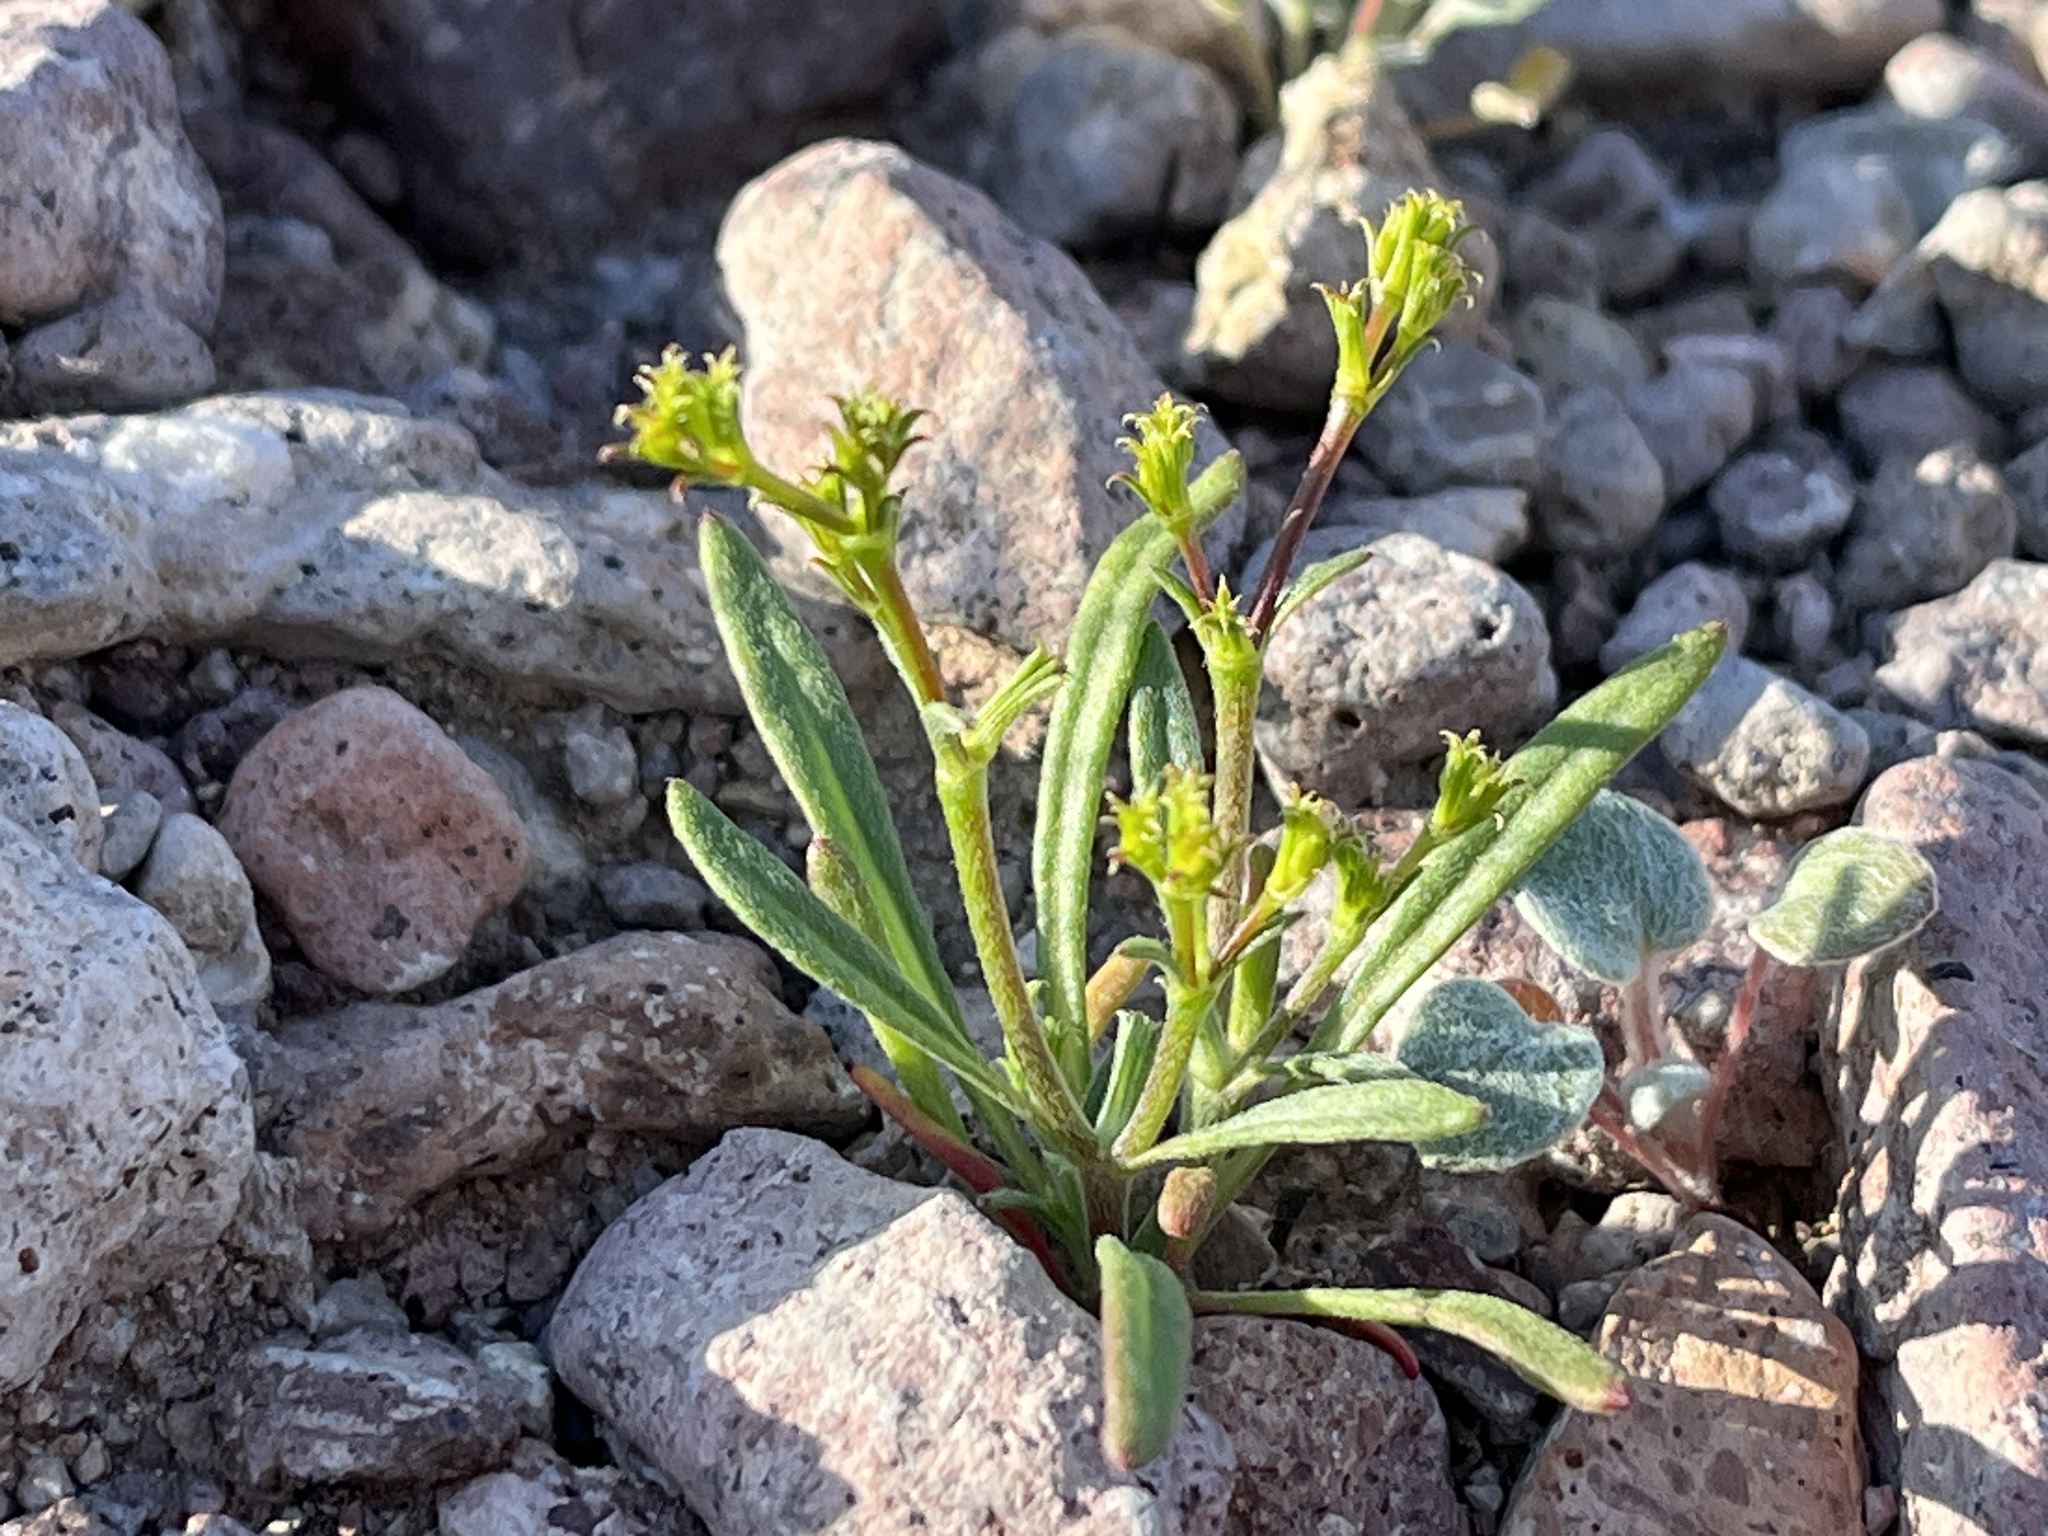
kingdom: Plantae
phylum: Tracheophyta
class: Magnoliopsida
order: Caryophyllales
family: Polygonaceae
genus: Chorizanthe
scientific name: Chorizanthe brevicornu
